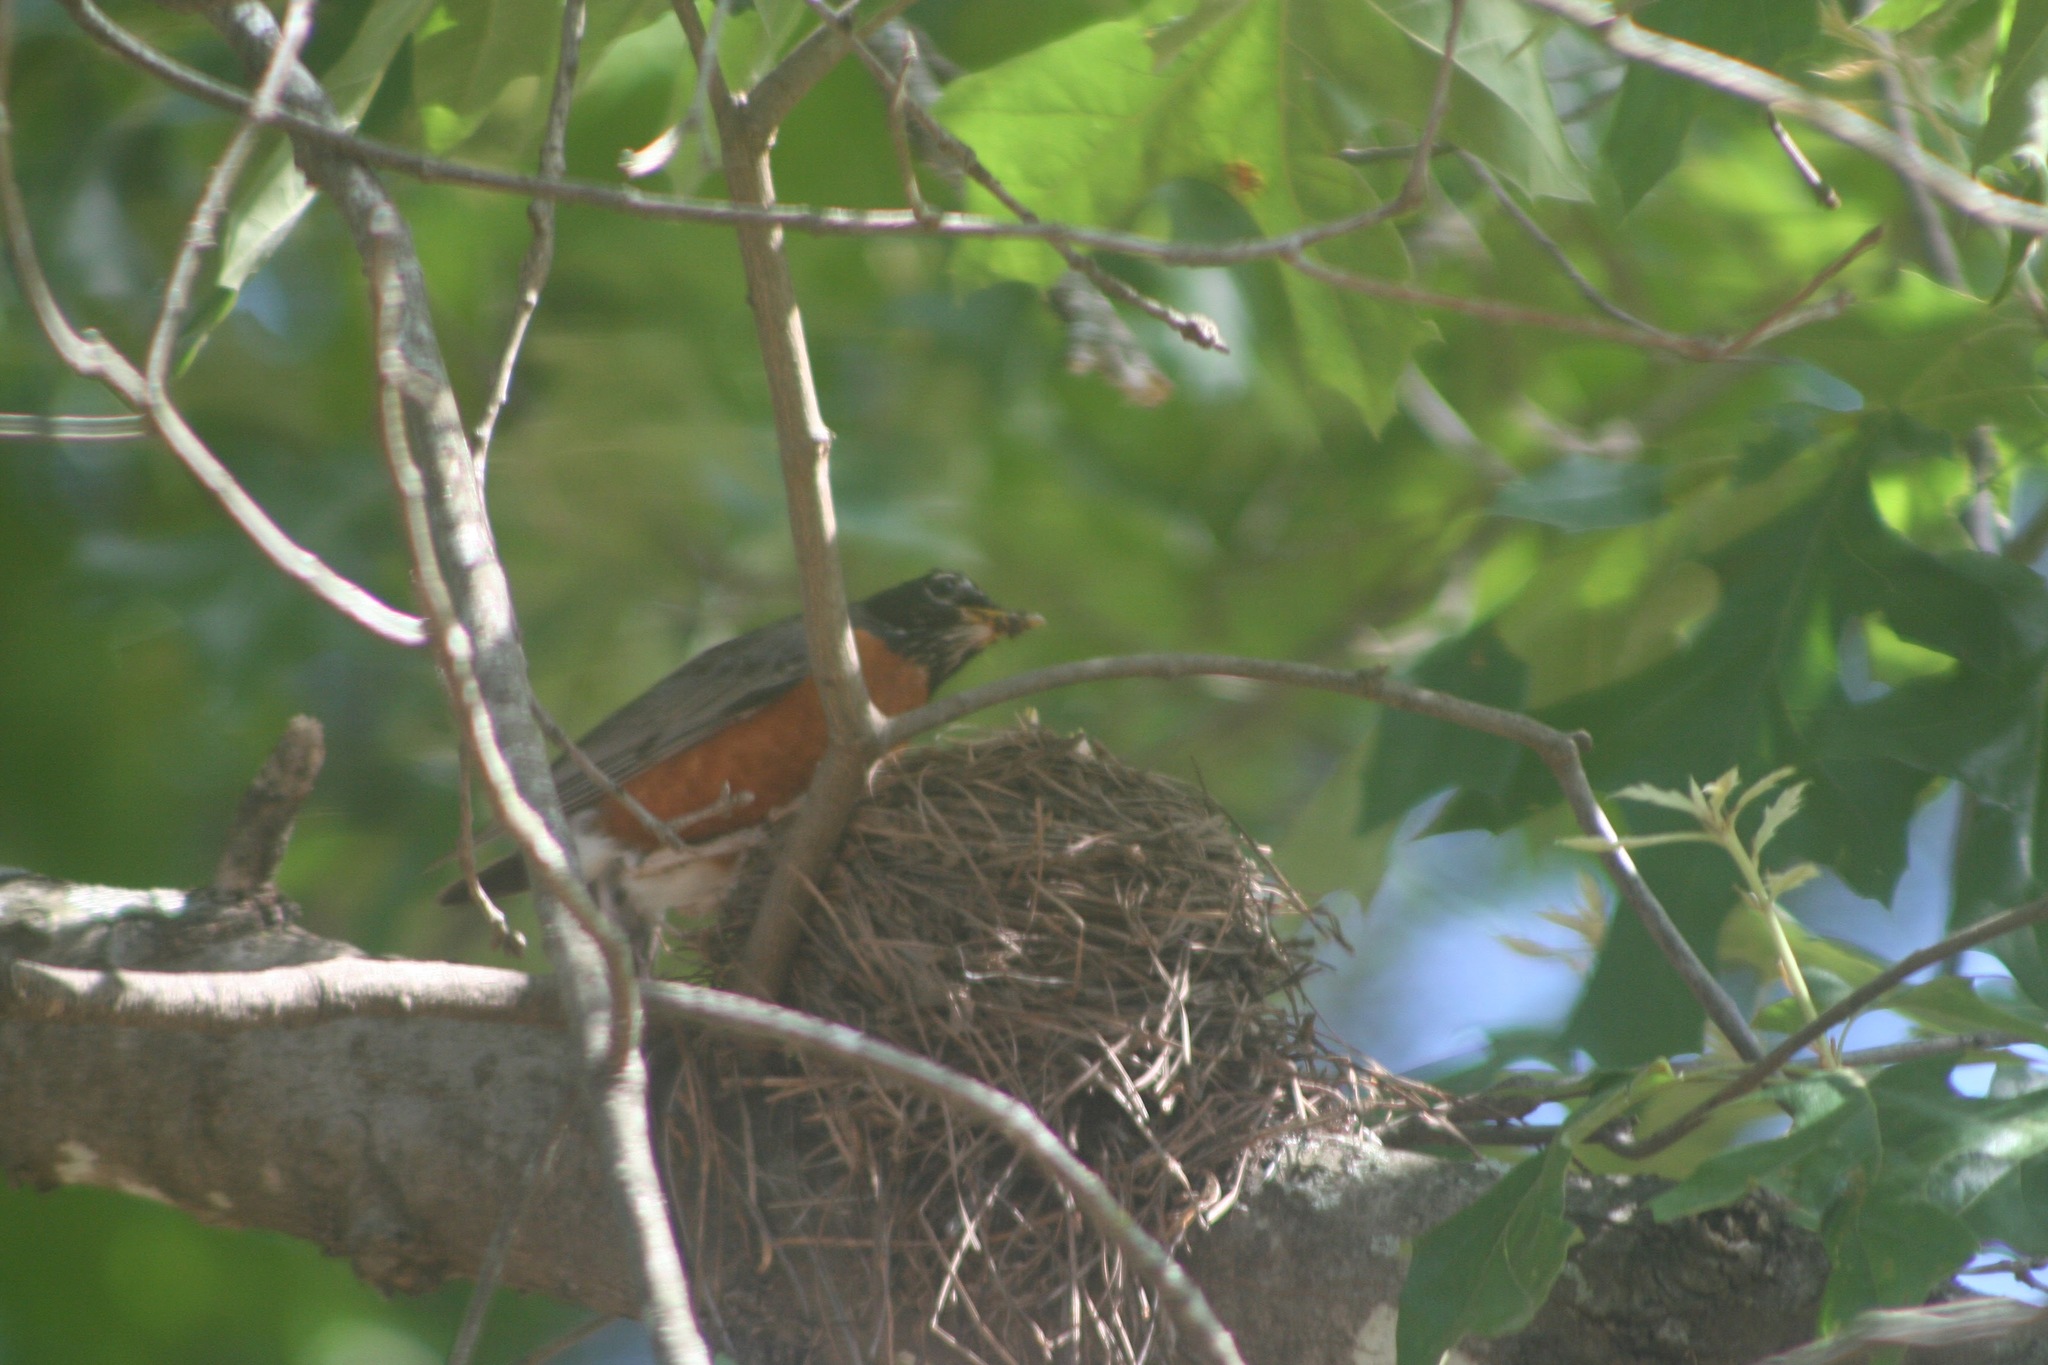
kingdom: Animalia
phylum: Chordata
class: Aves
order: Passeriformes
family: Turdidae
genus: Turdus
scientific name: Turdus migratorius
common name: American robin
